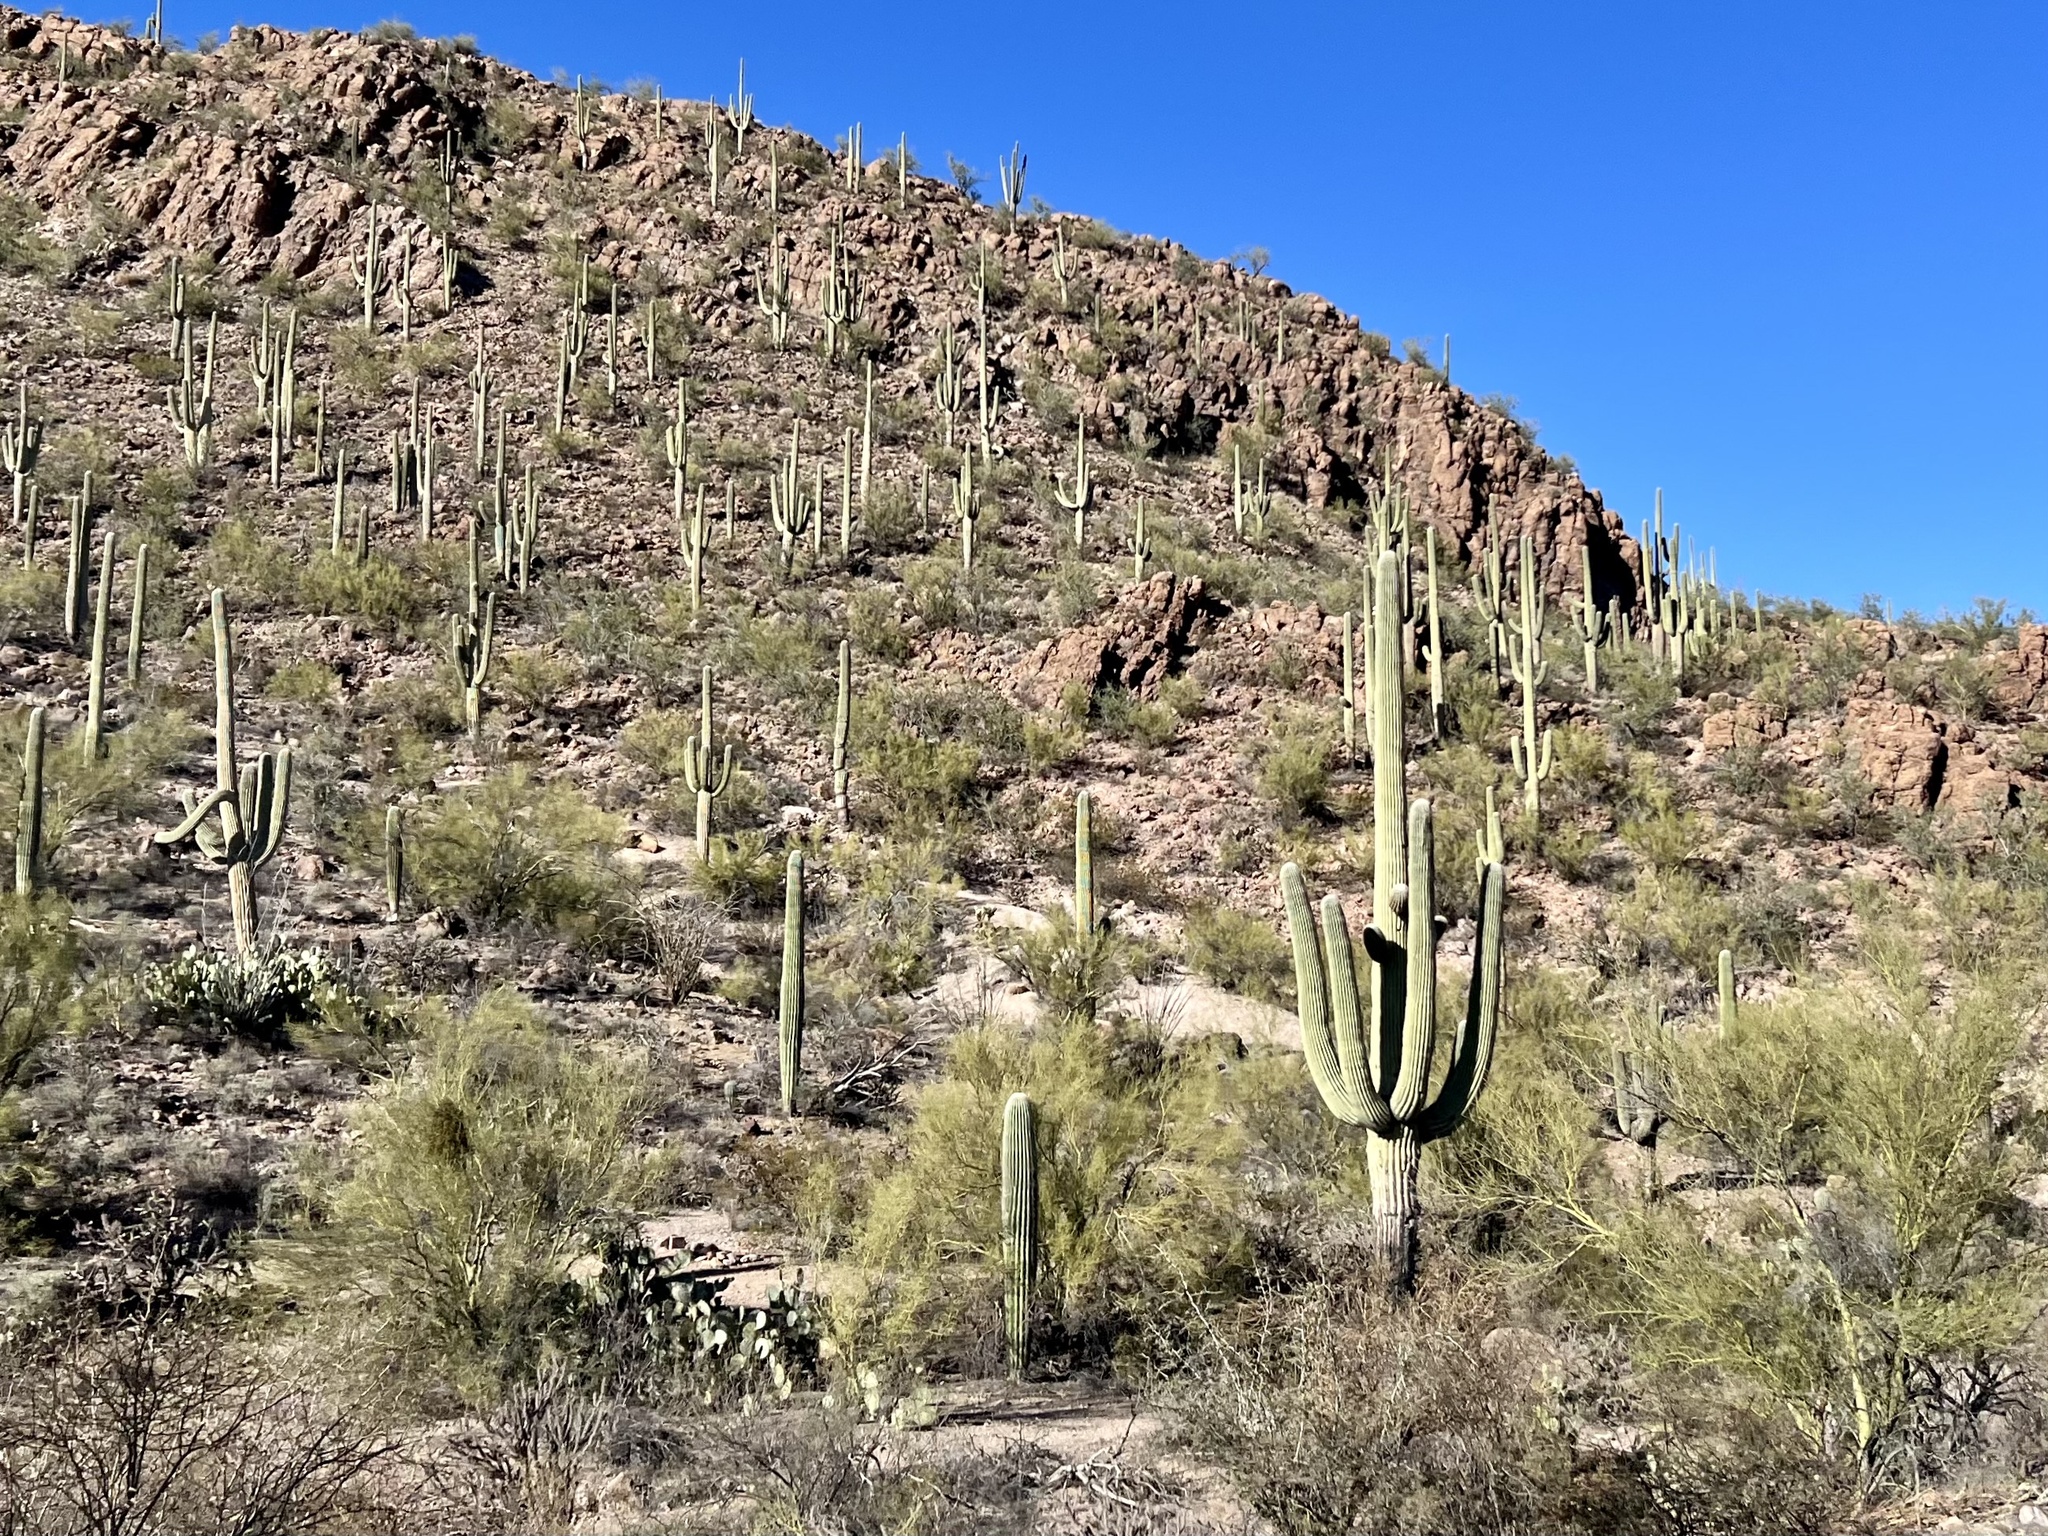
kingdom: Plantae
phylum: Tracheophyta
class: Magnoliopsida
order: Caryophyllales
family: Cactaceae
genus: Carnegiea
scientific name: Carnegiea gigantea
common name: Saguaro
